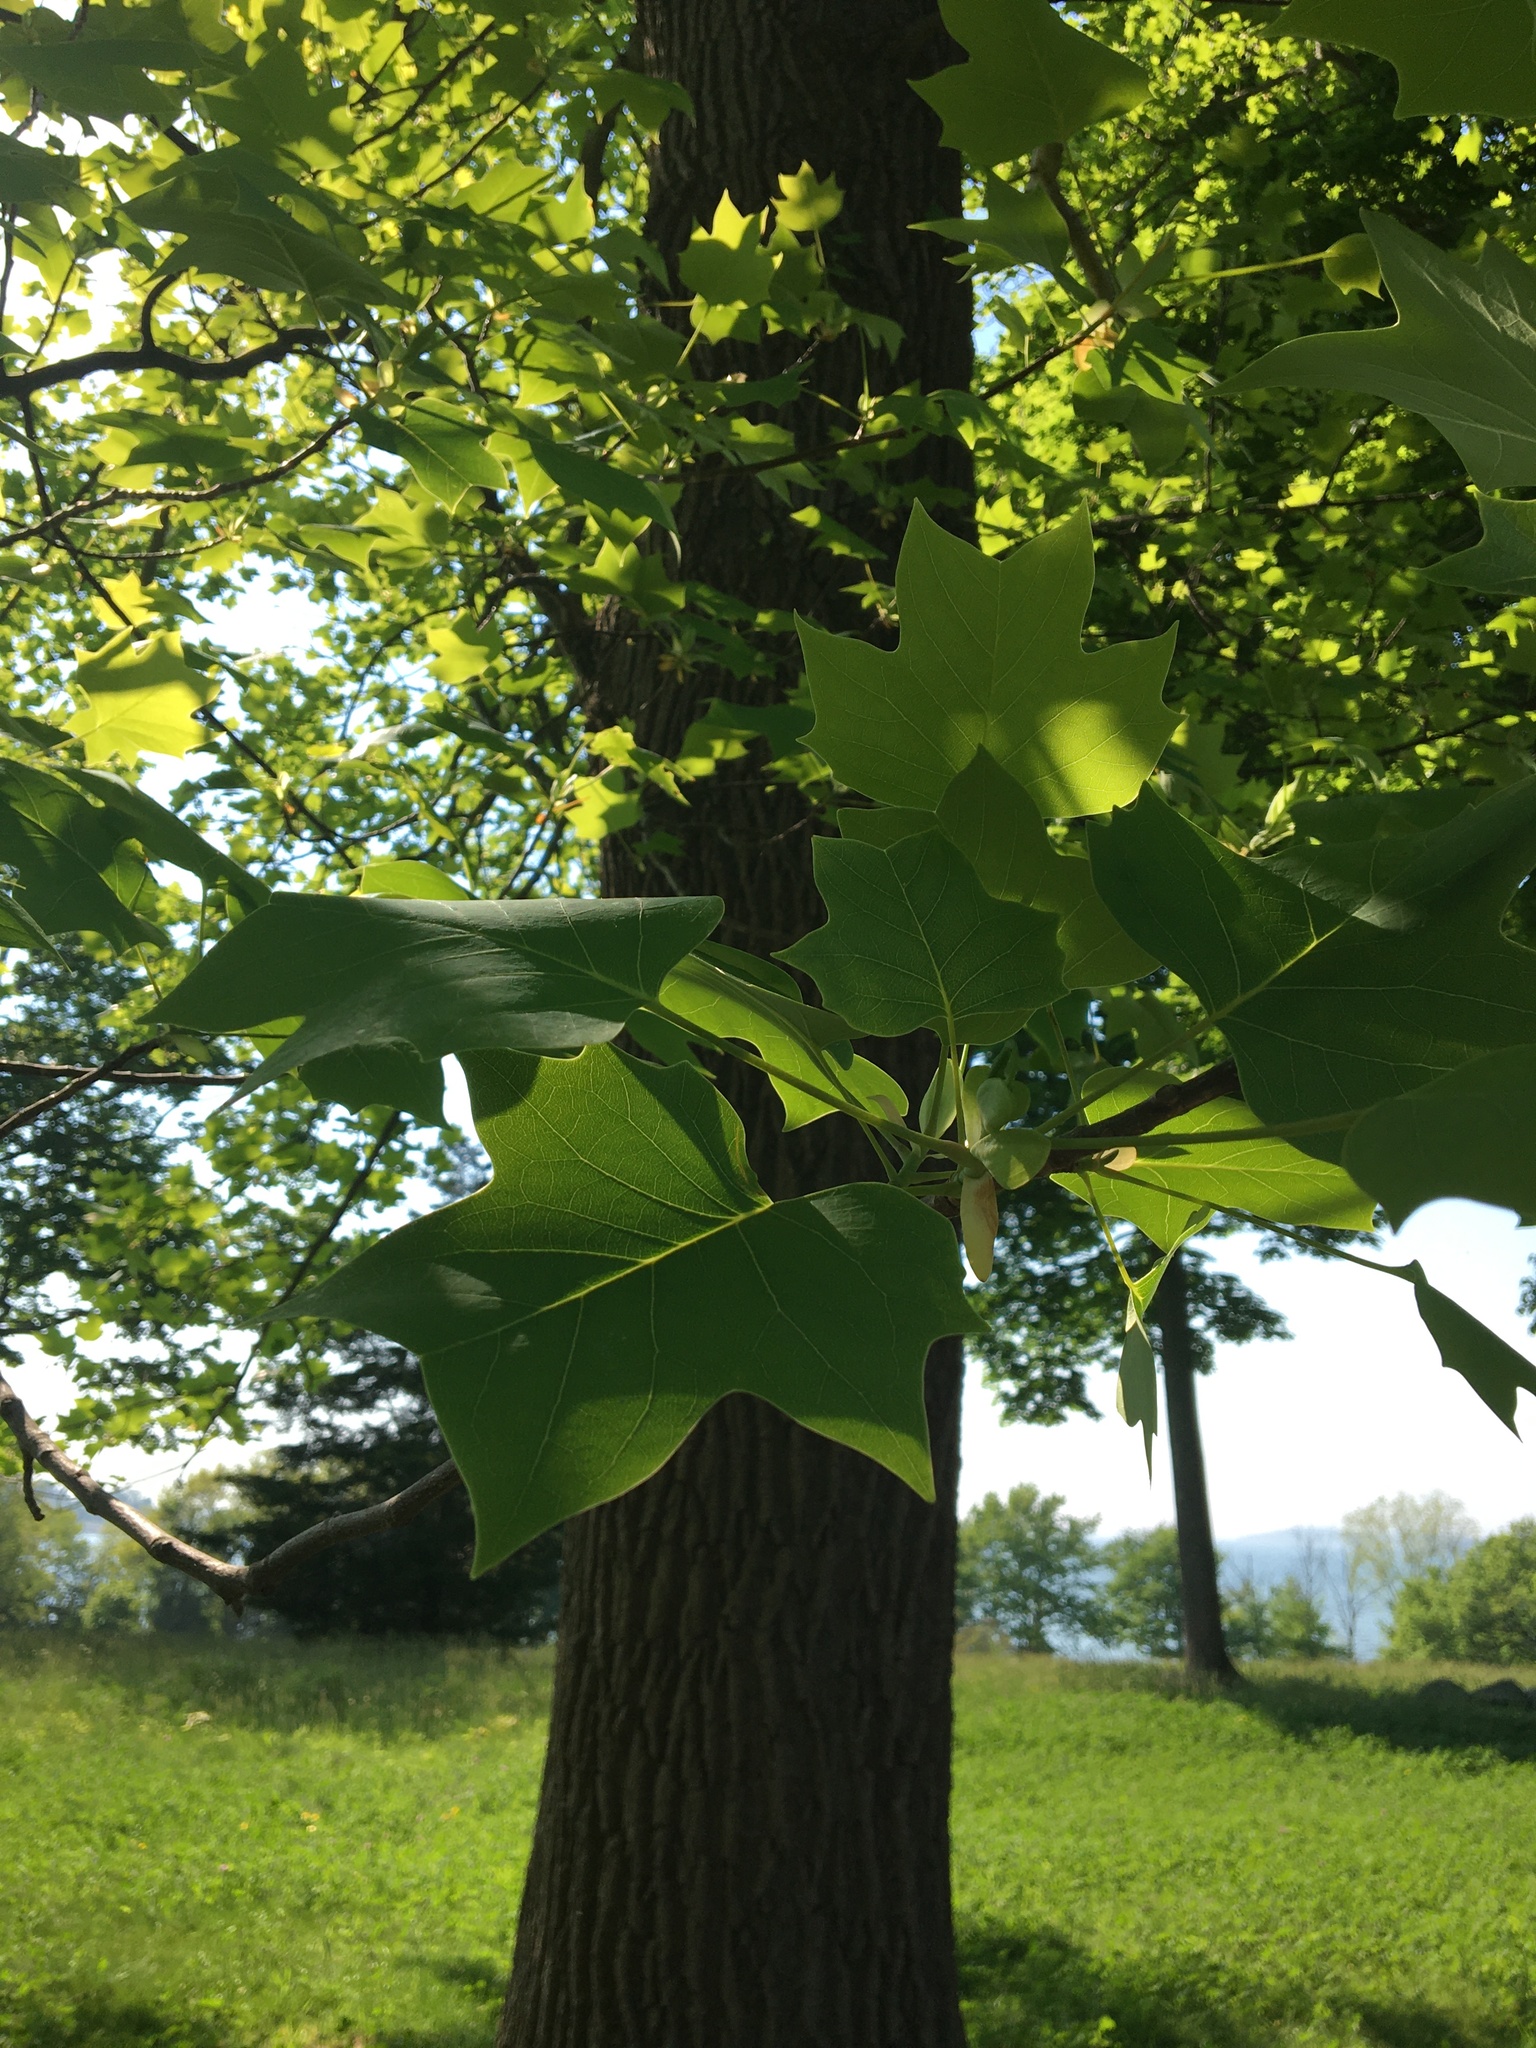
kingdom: Plantae
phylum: Tracheophyta
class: Magnoliopsida
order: Magnoliales
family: Magnoliaceae
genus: Liriodendron
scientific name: Liriodendron tulipifera
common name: Tulip tree
